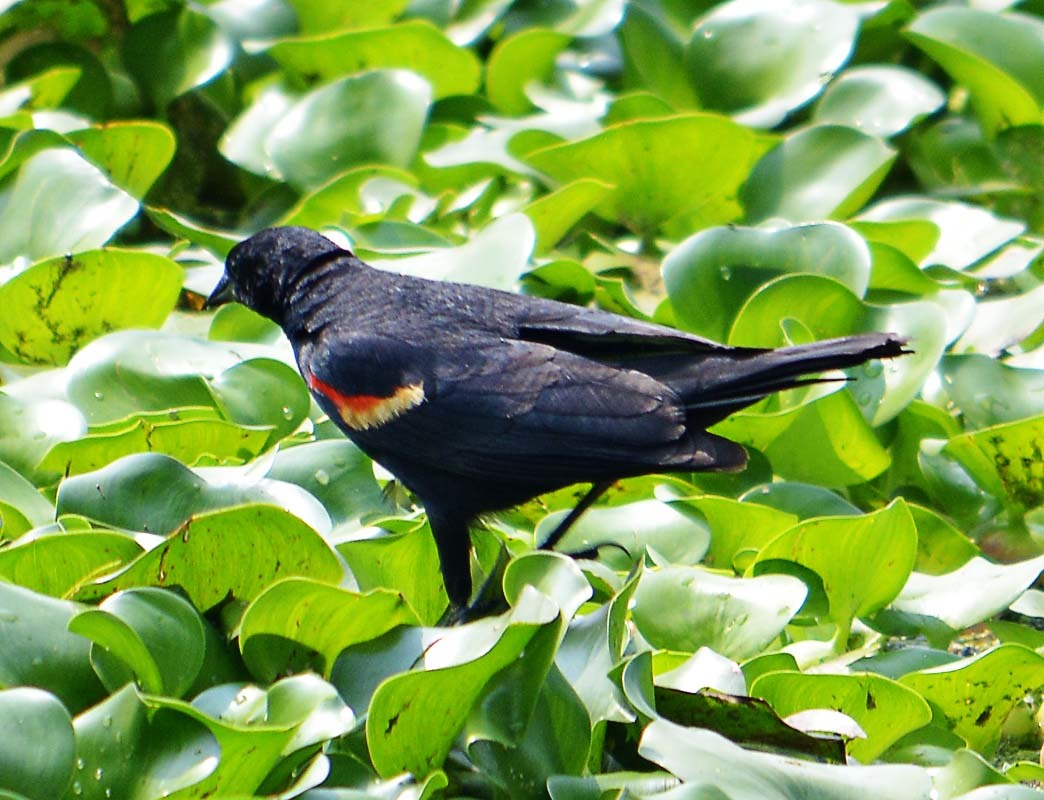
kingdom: Animalia
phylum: Chordata
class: Aves
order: Passeriformes
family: Icteridae
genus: Agelaius
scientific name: Agelaius phoeniceus
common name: Red-winged blackbird
